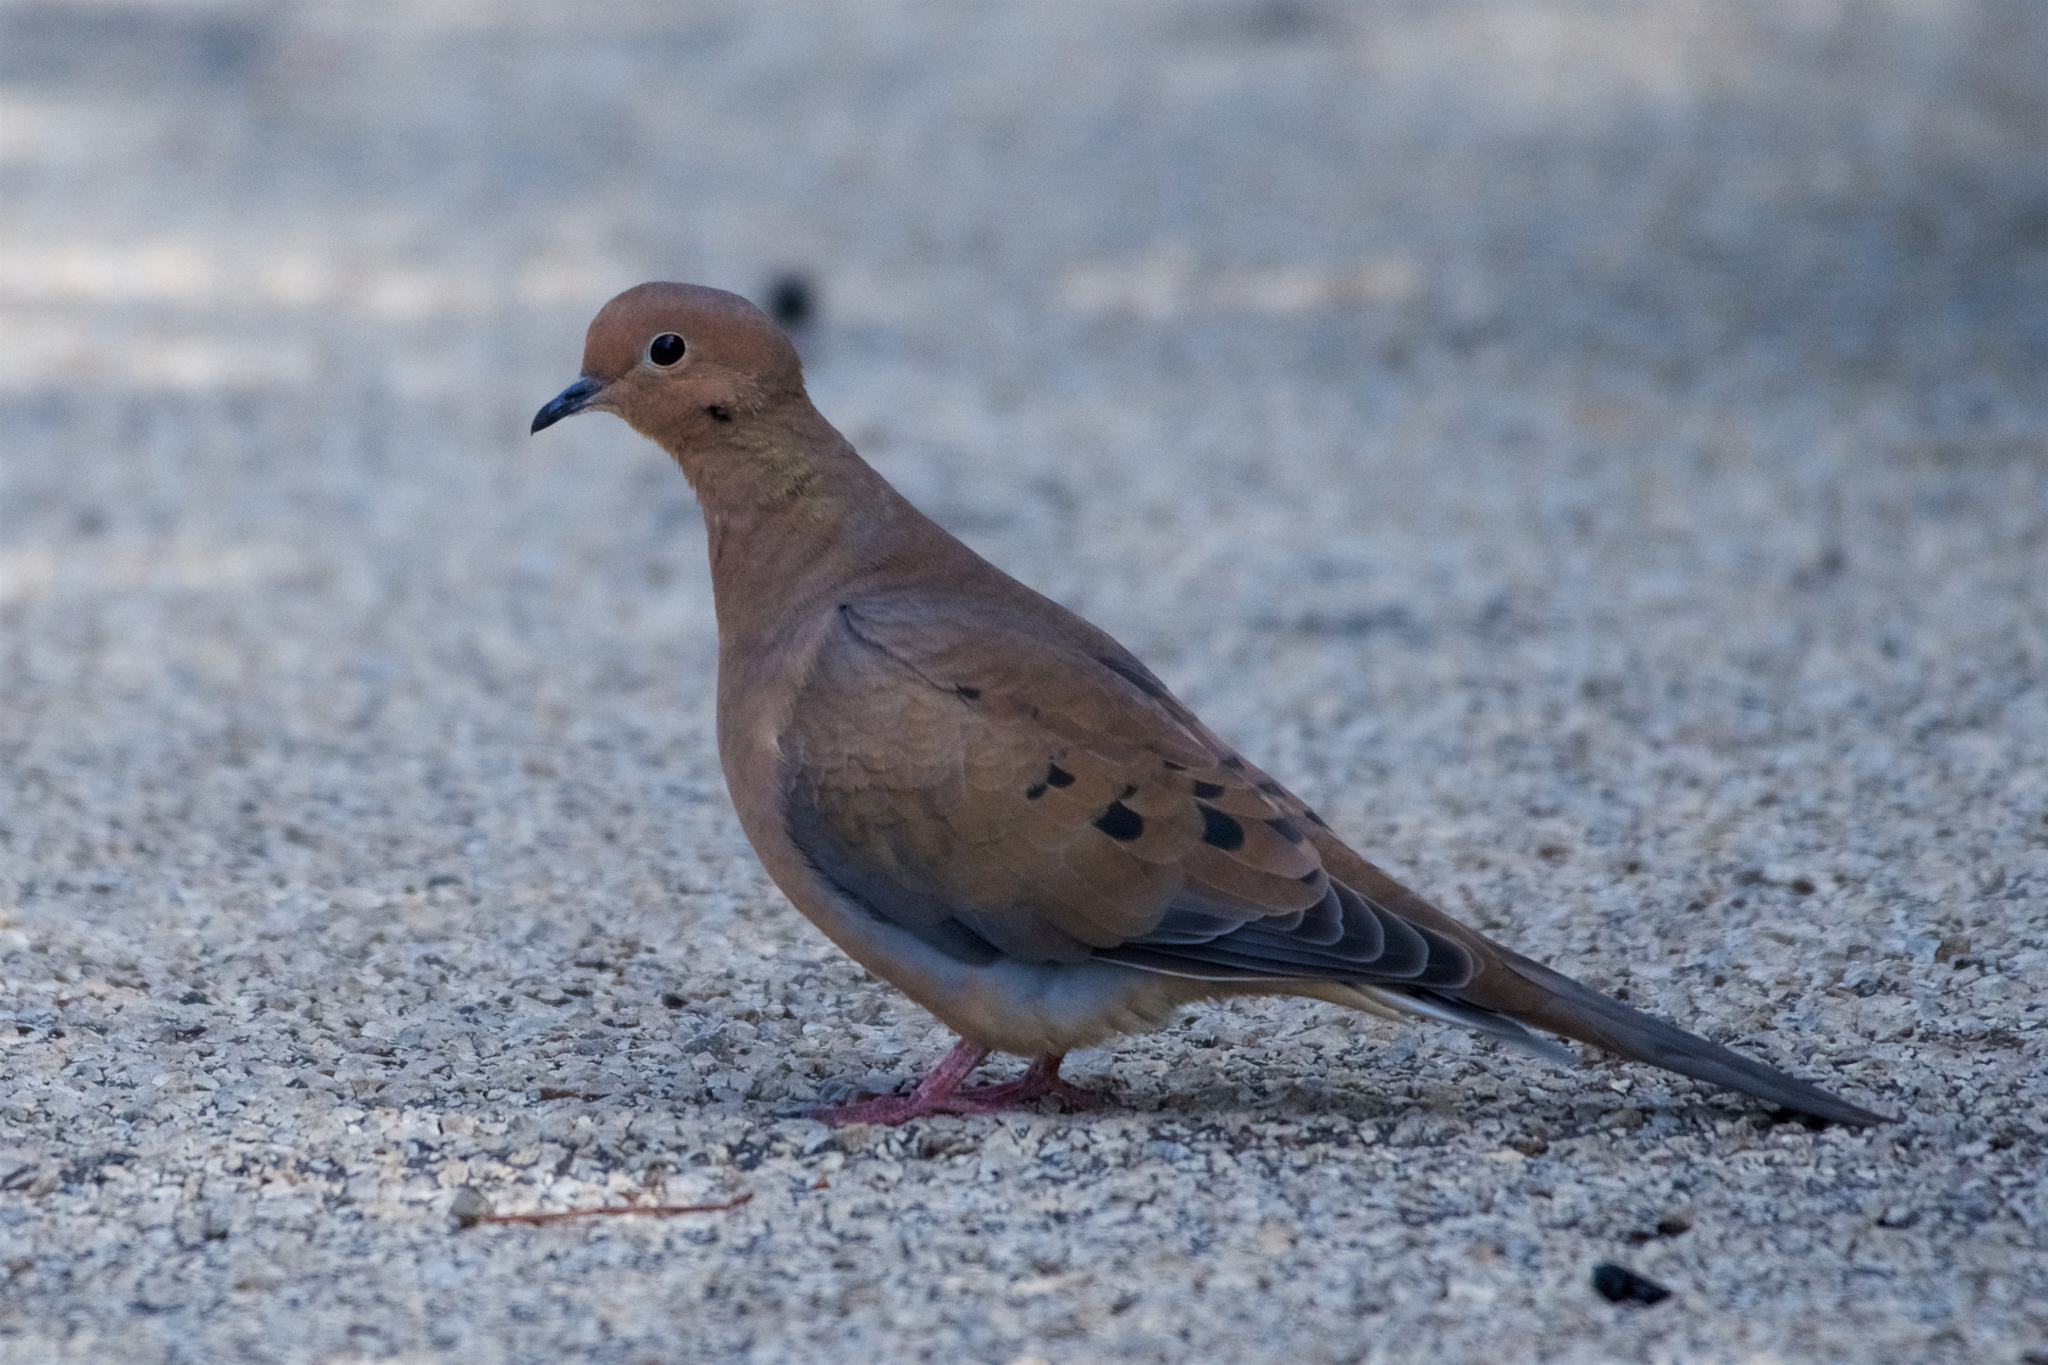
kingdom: Animalia
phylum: Chordata
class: Aves
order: Columbiformes
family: Columbidae
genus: Zenaida
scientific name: Zenaida macroura
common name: Mourning dove
